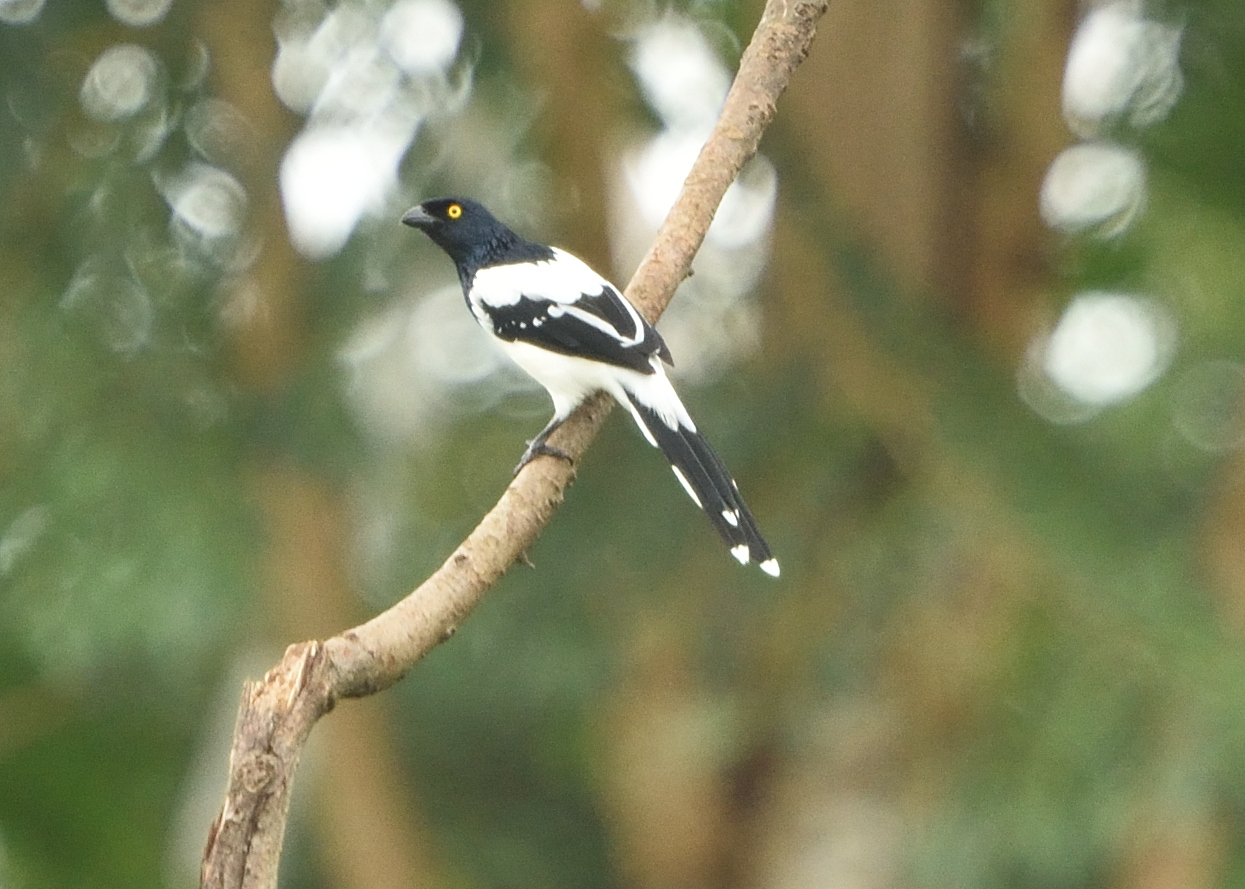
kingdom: Animalia
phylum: Chordata
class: Aves
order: Passeriformes
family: Thraupidae
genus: Cissopis
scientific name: Cissopis leverianus
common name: Magpie tanager
